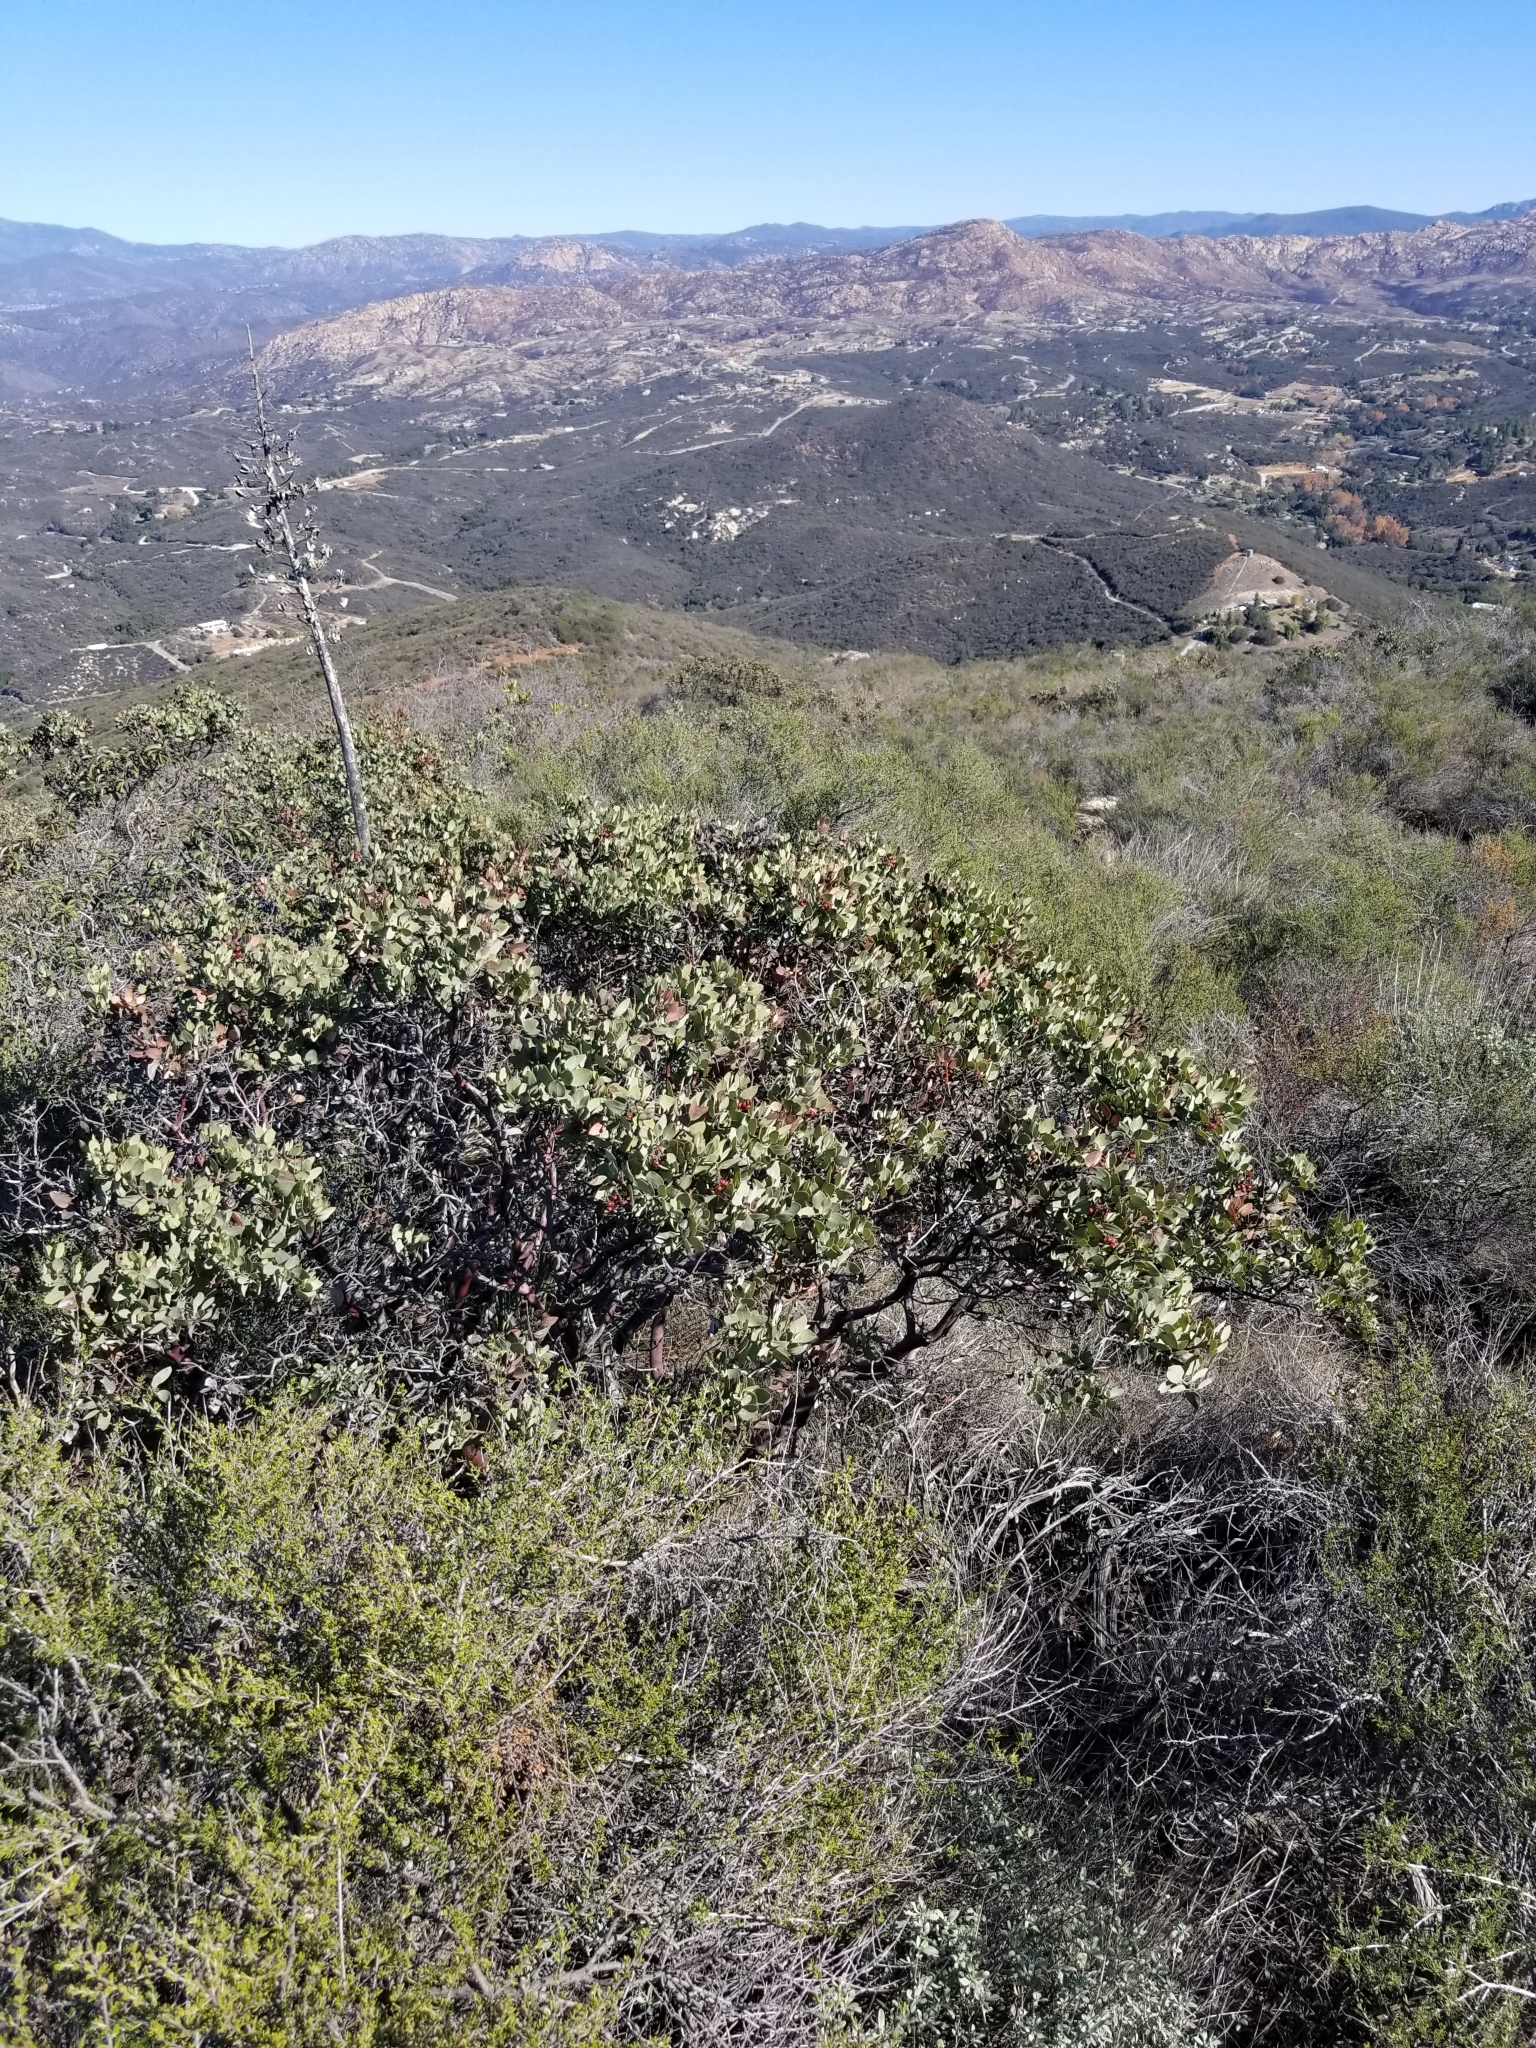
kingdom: Plantae
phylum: Tracheophyta
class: Magnoliopsida
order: Ericales
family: Ericaceae
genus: Arctostaphylos
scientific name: Arctostaphylos glandulosa
